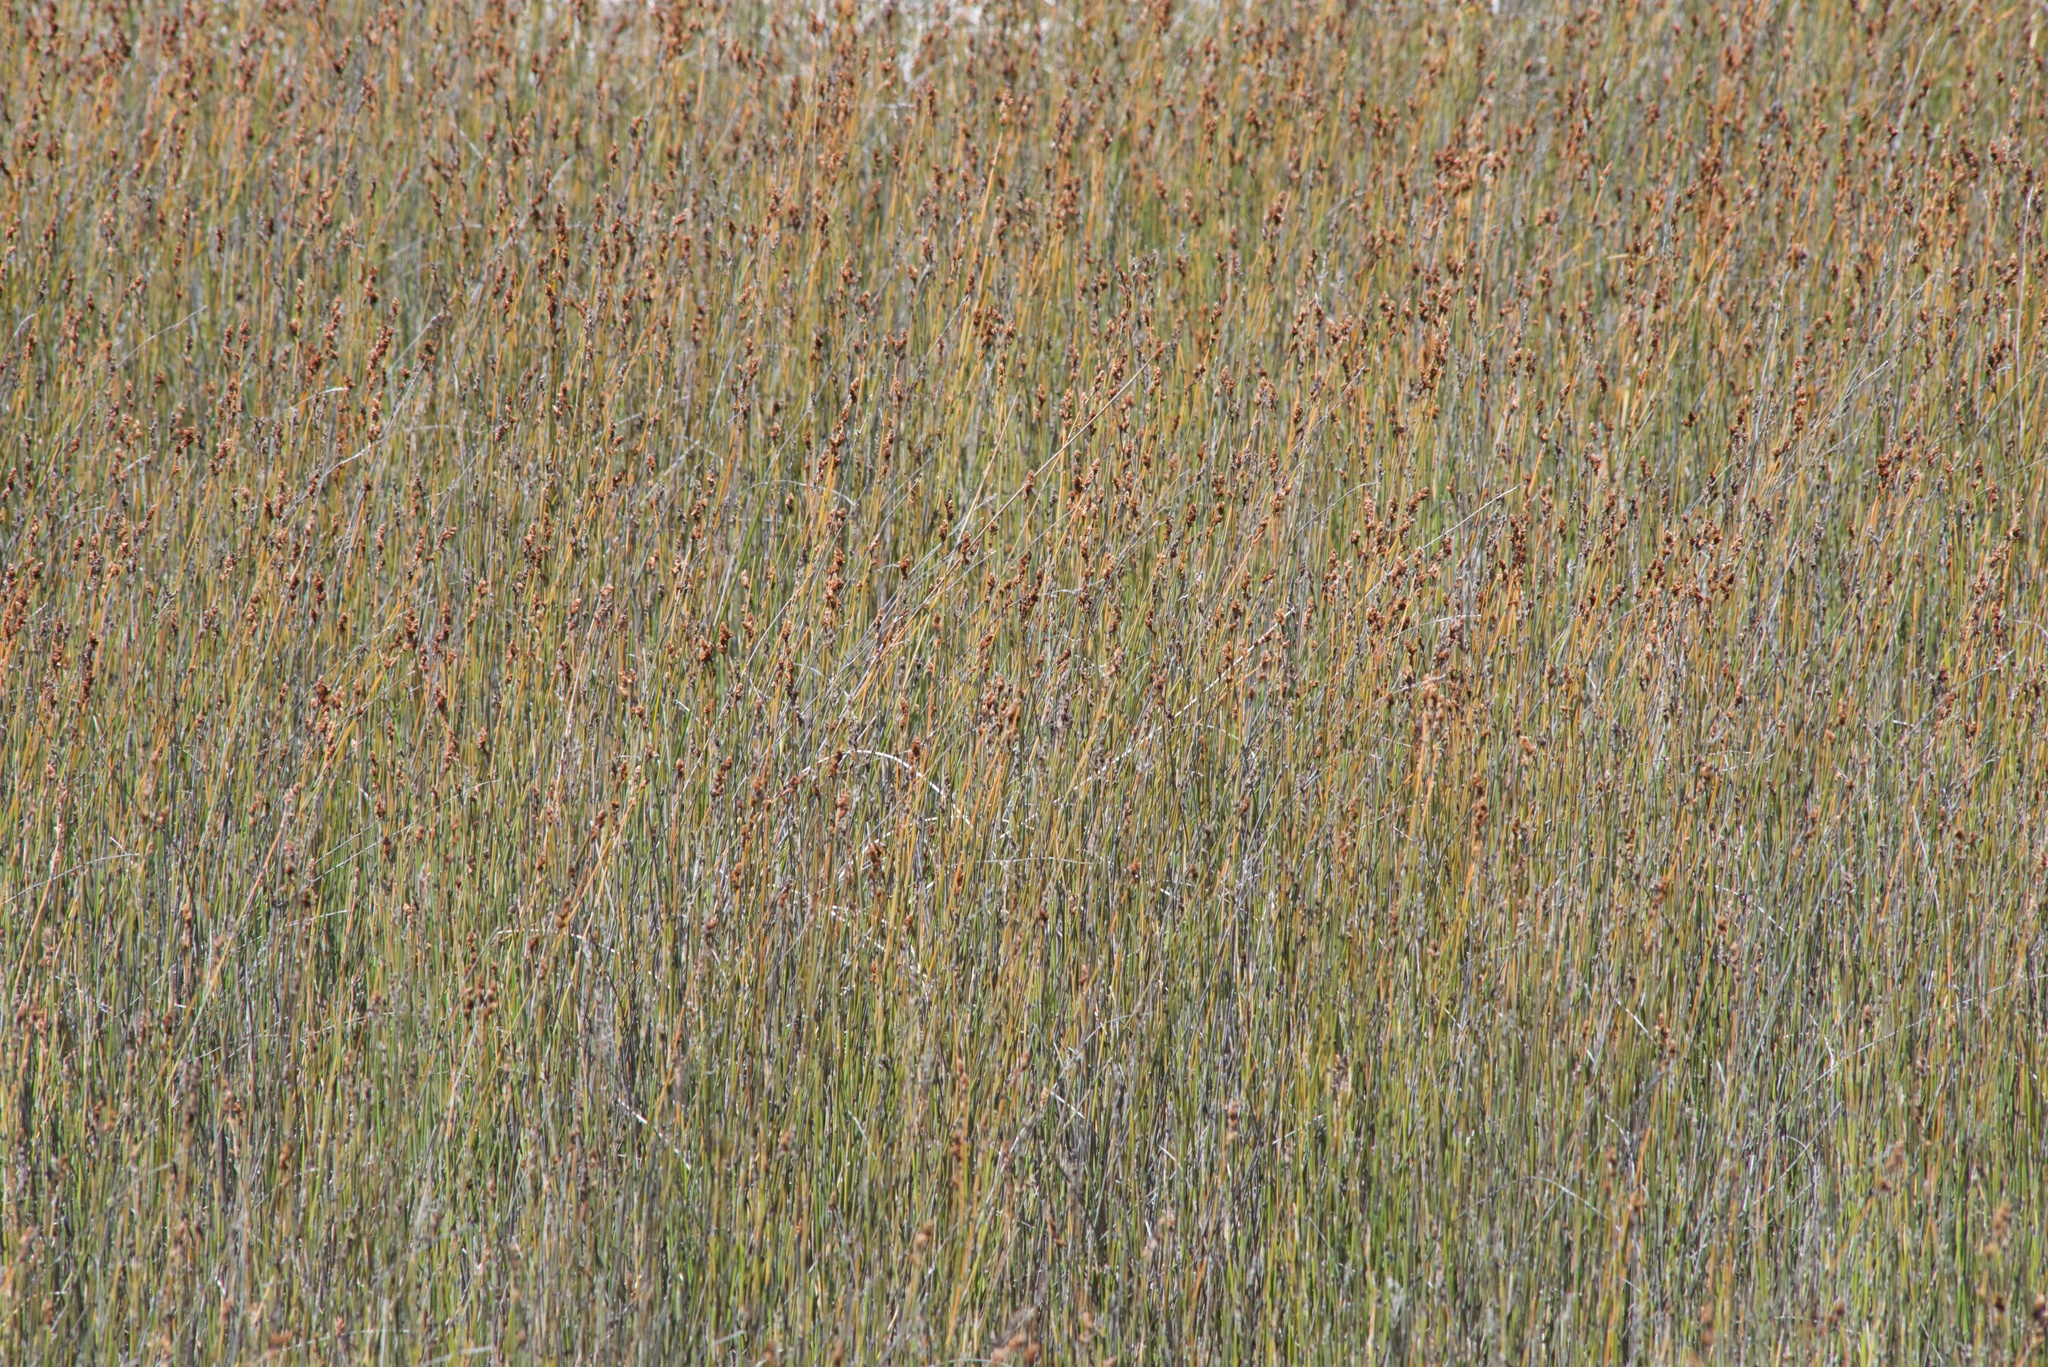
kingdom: Plantae
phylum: Tracheophyta
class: Liliopsida
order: Poales
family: Restionaceae
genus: Apodasmia
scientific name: Apodasmia similis
